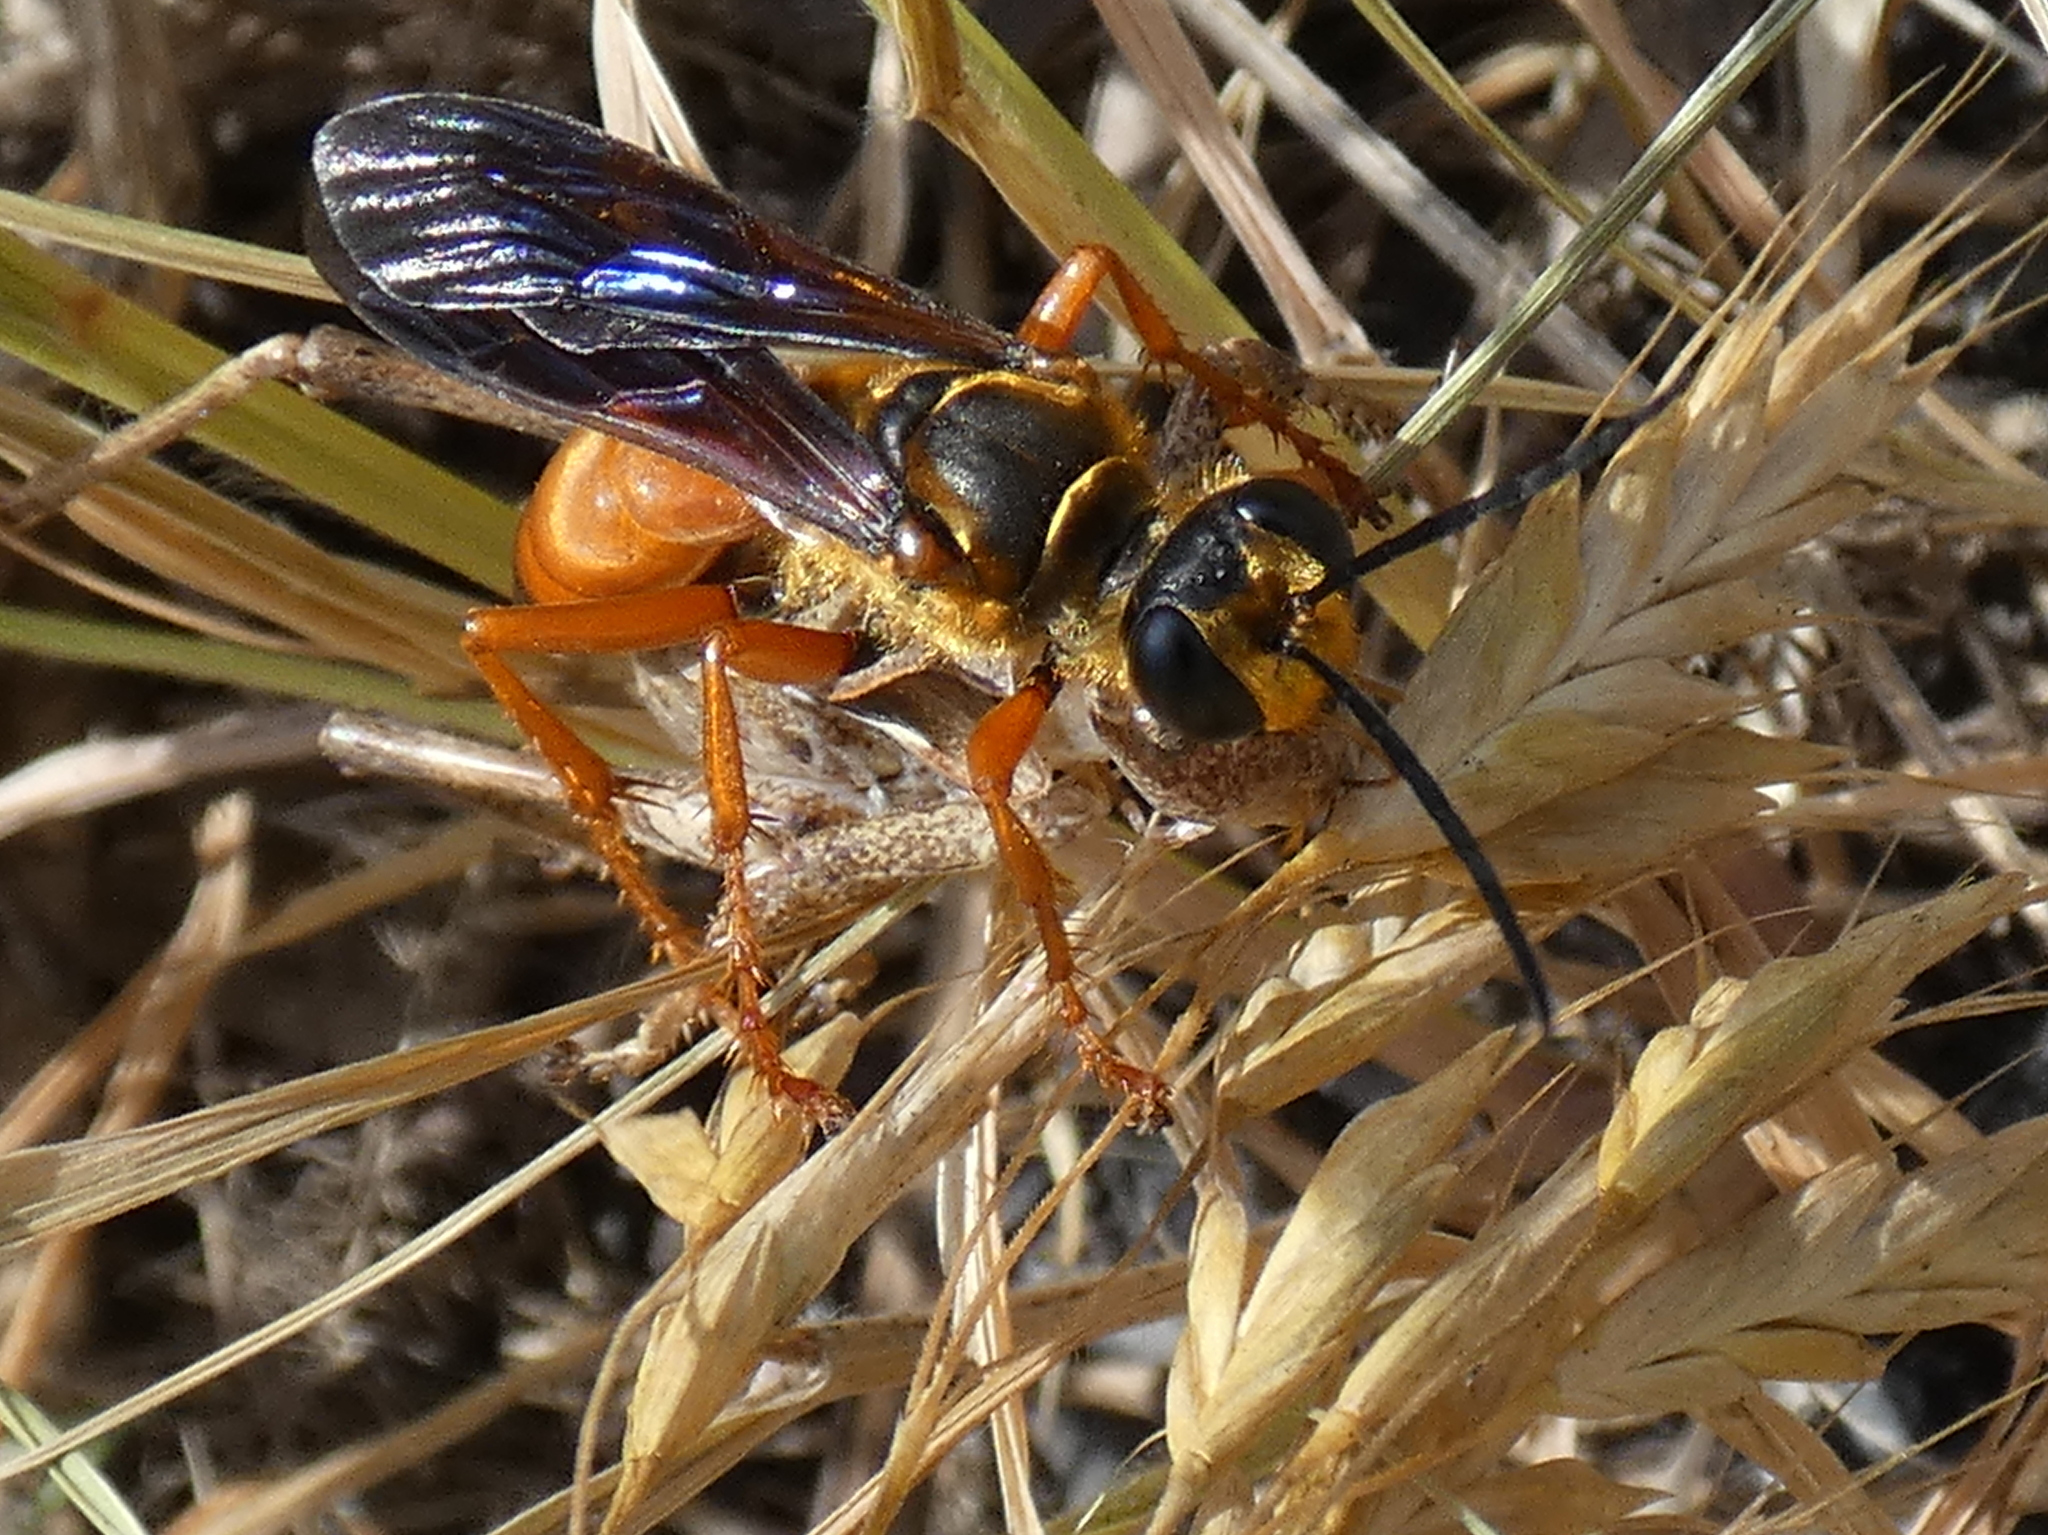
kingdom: Animalia
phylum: Arthropoda
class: Insecta
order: Hymenoptera
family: Sphecidae
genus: Sphex
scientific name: Sphex ichneumoneus
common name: Great golden digger wasp
